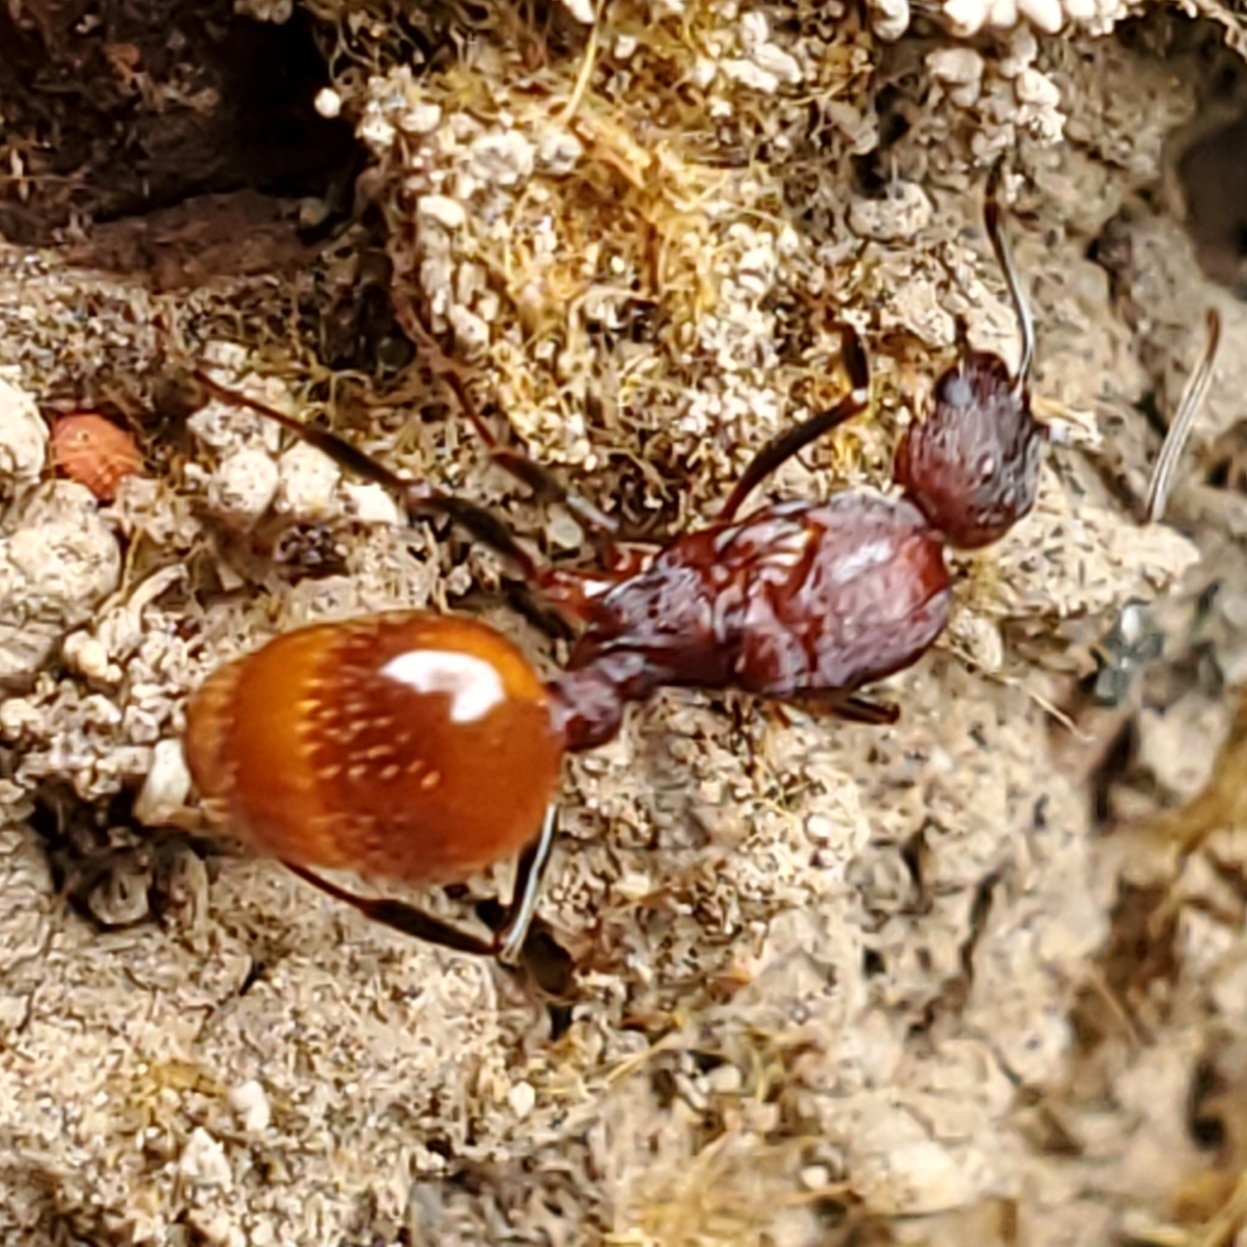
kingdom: Animalia
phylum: Arthropoda
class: Insecta
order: Hymenoptera
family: Formicidae
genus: Aphaenogaster
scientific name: Aphaenogaster lamellidens
